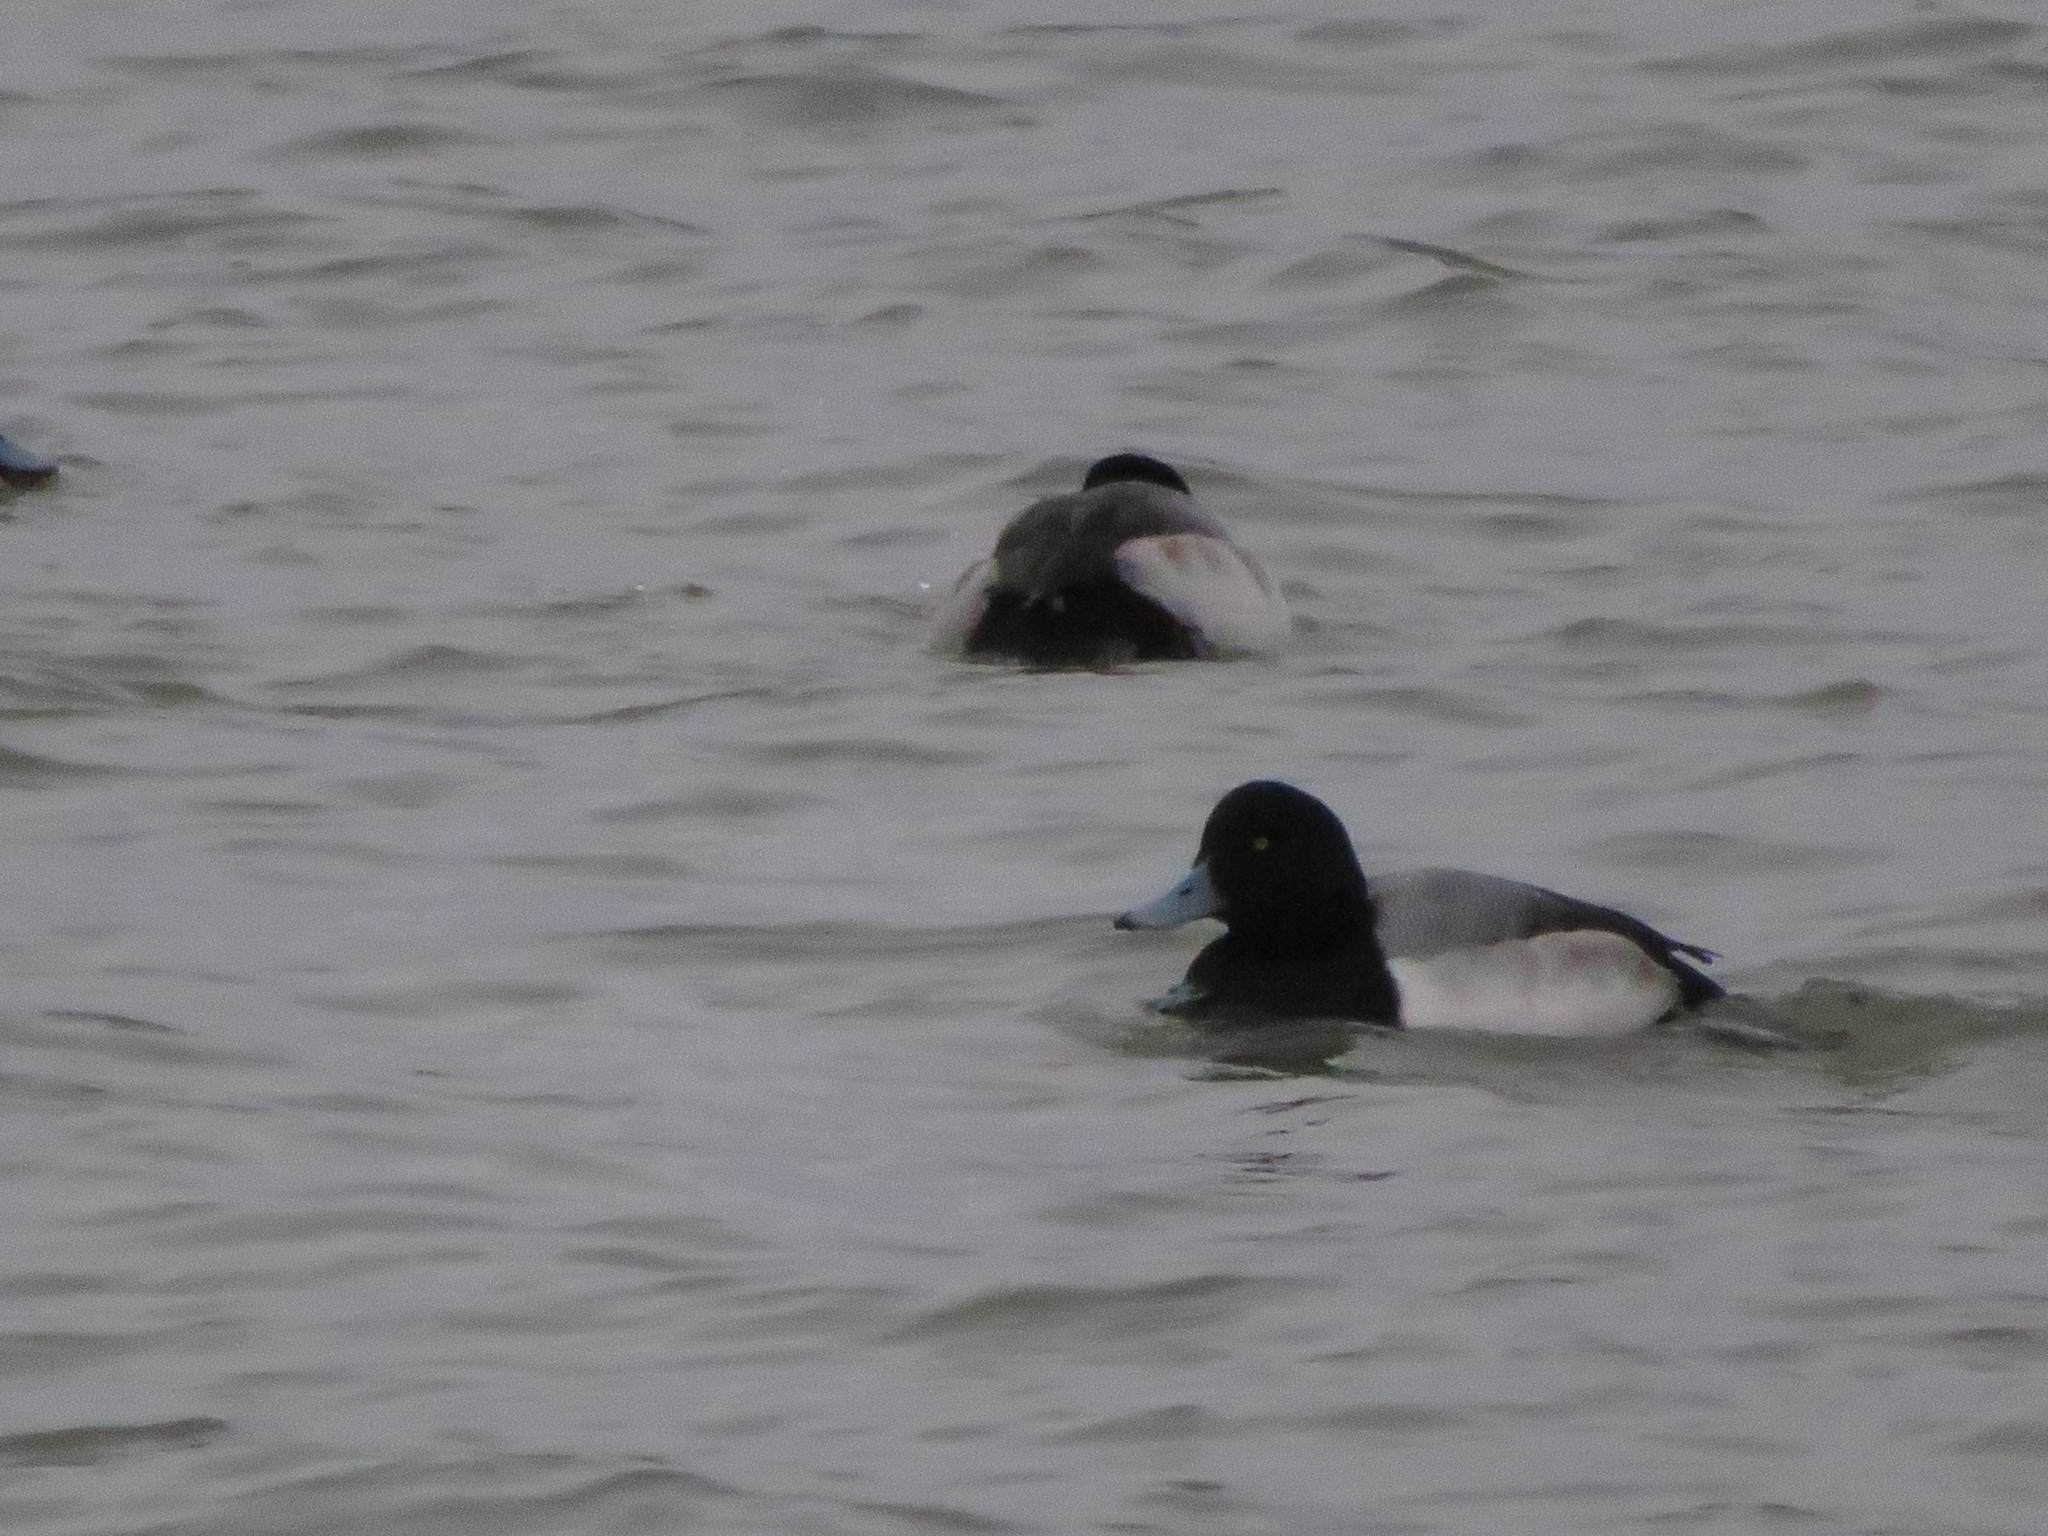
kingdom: Animalia
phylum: Chordata
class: Aves
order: Anseriformes
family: Anatidae
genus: Aythya
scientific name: Aythya marila
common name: Greater scaup
